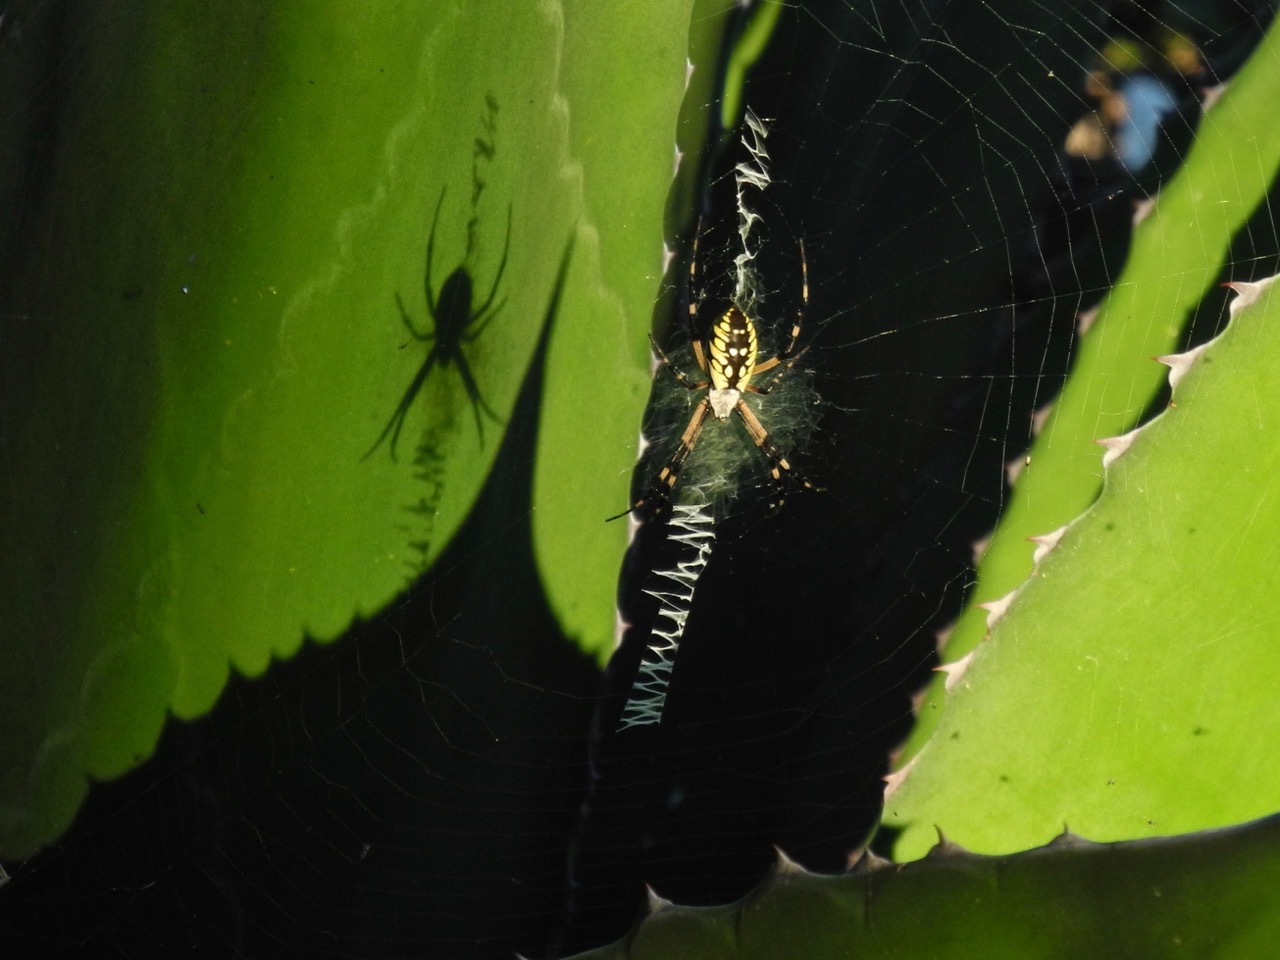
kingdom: Animalia
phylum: Arthropoda
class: Arachnida
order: Araneae
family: Araneidae
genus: Argiope
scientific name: Argiope aurantia
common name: Orb weavers
